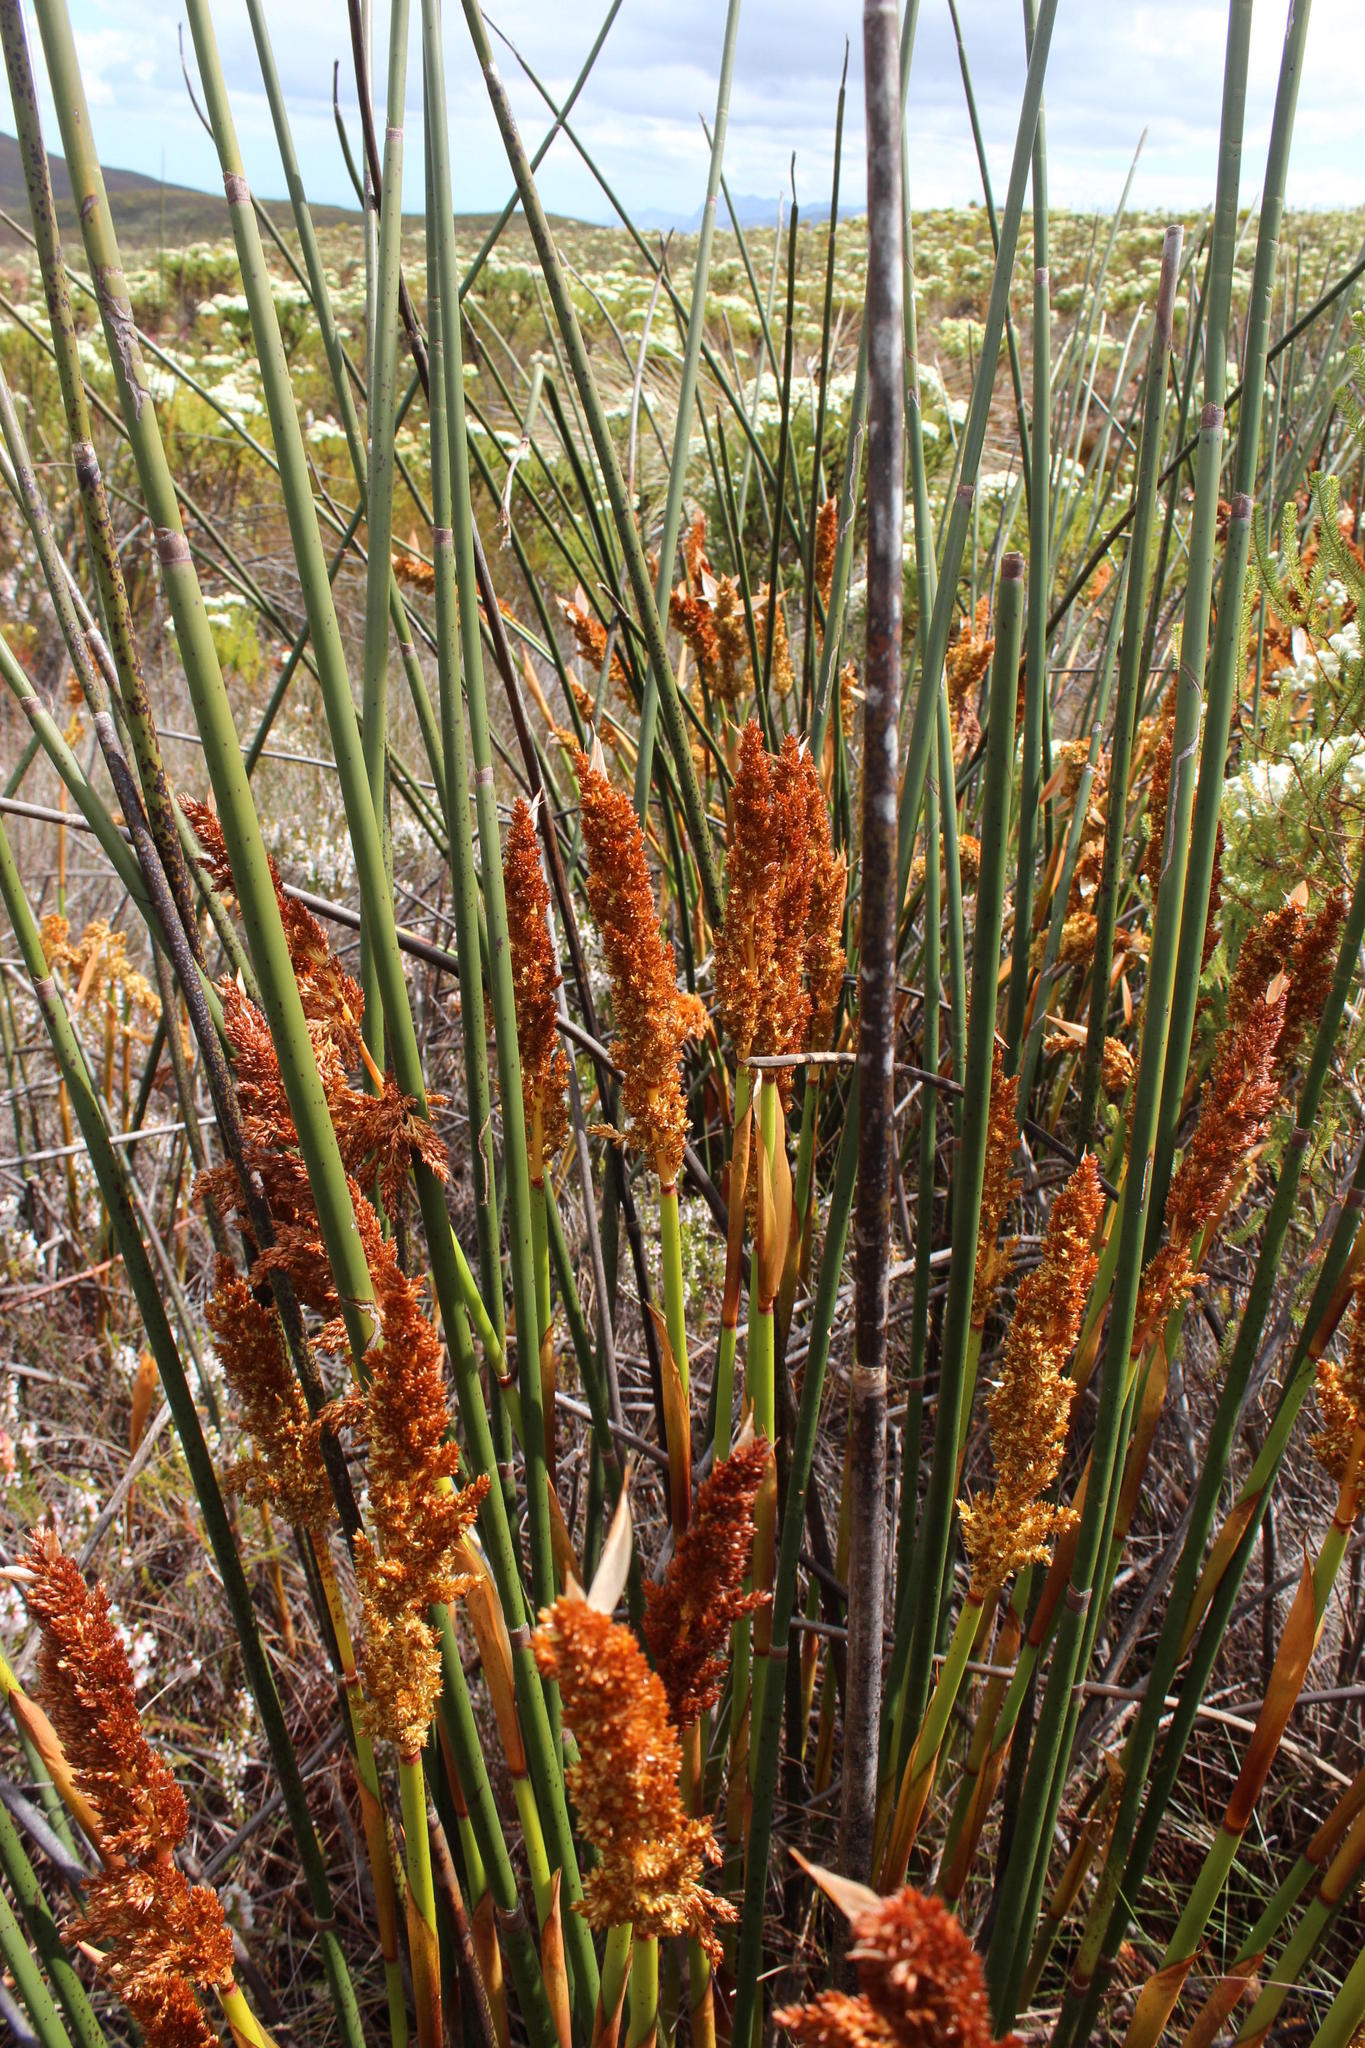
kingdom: Plantae
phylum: Tracheophyta
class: Liliopsida
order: Poales
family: Restionaceae
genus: Elegia
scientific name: Elegia mucronata
